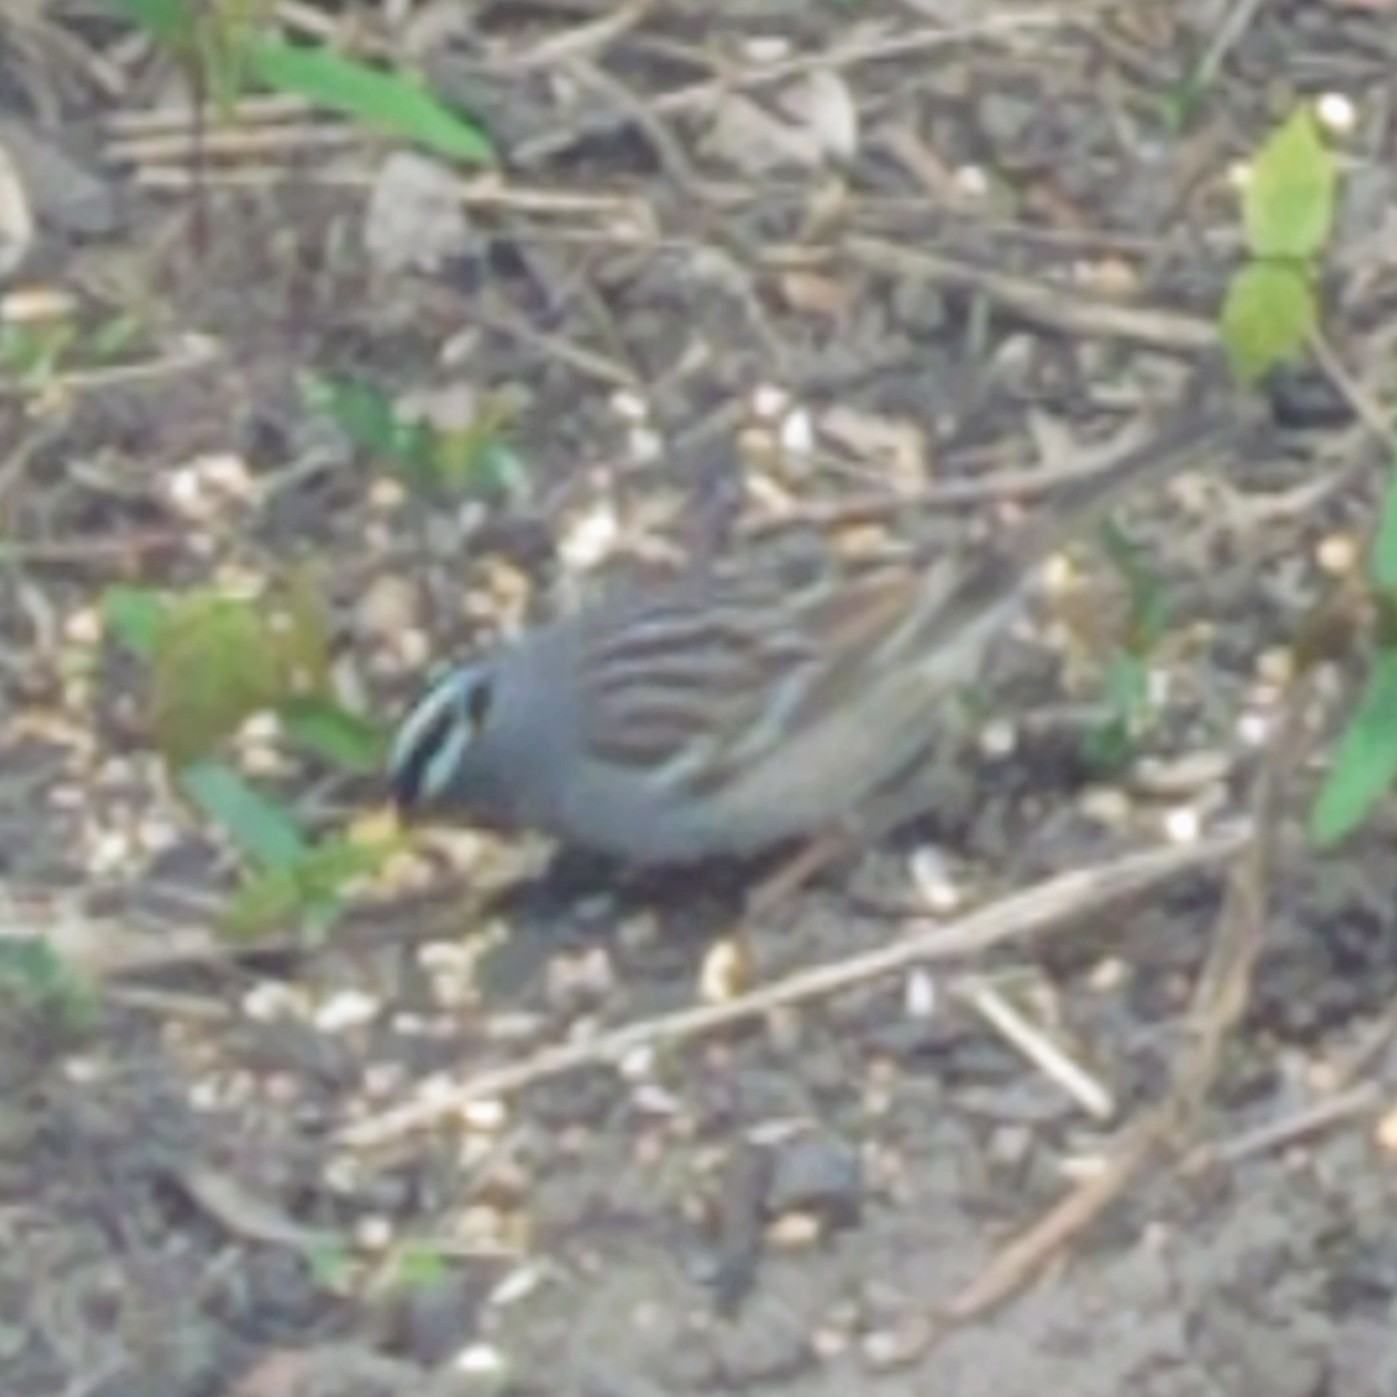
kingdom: Animalia
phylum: Chordata
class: Aves
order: Passeriformes
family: Passerellidae
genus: Zonotrichia
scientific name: Zonotrichia leucophrys
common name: White-crowned sparrow
